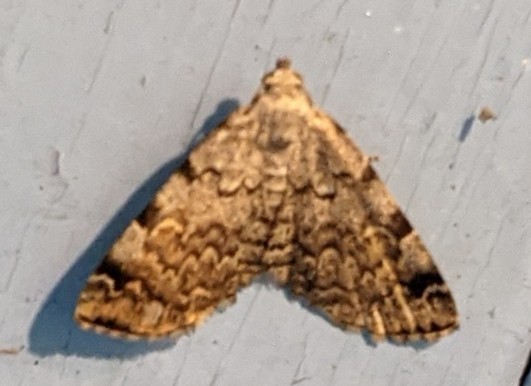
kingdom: Animalia
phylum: Arthropoda
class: Insecta
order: Lepidoptera
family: Erebidae
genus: Idia
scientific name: Idia americalis
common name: American idia moth
